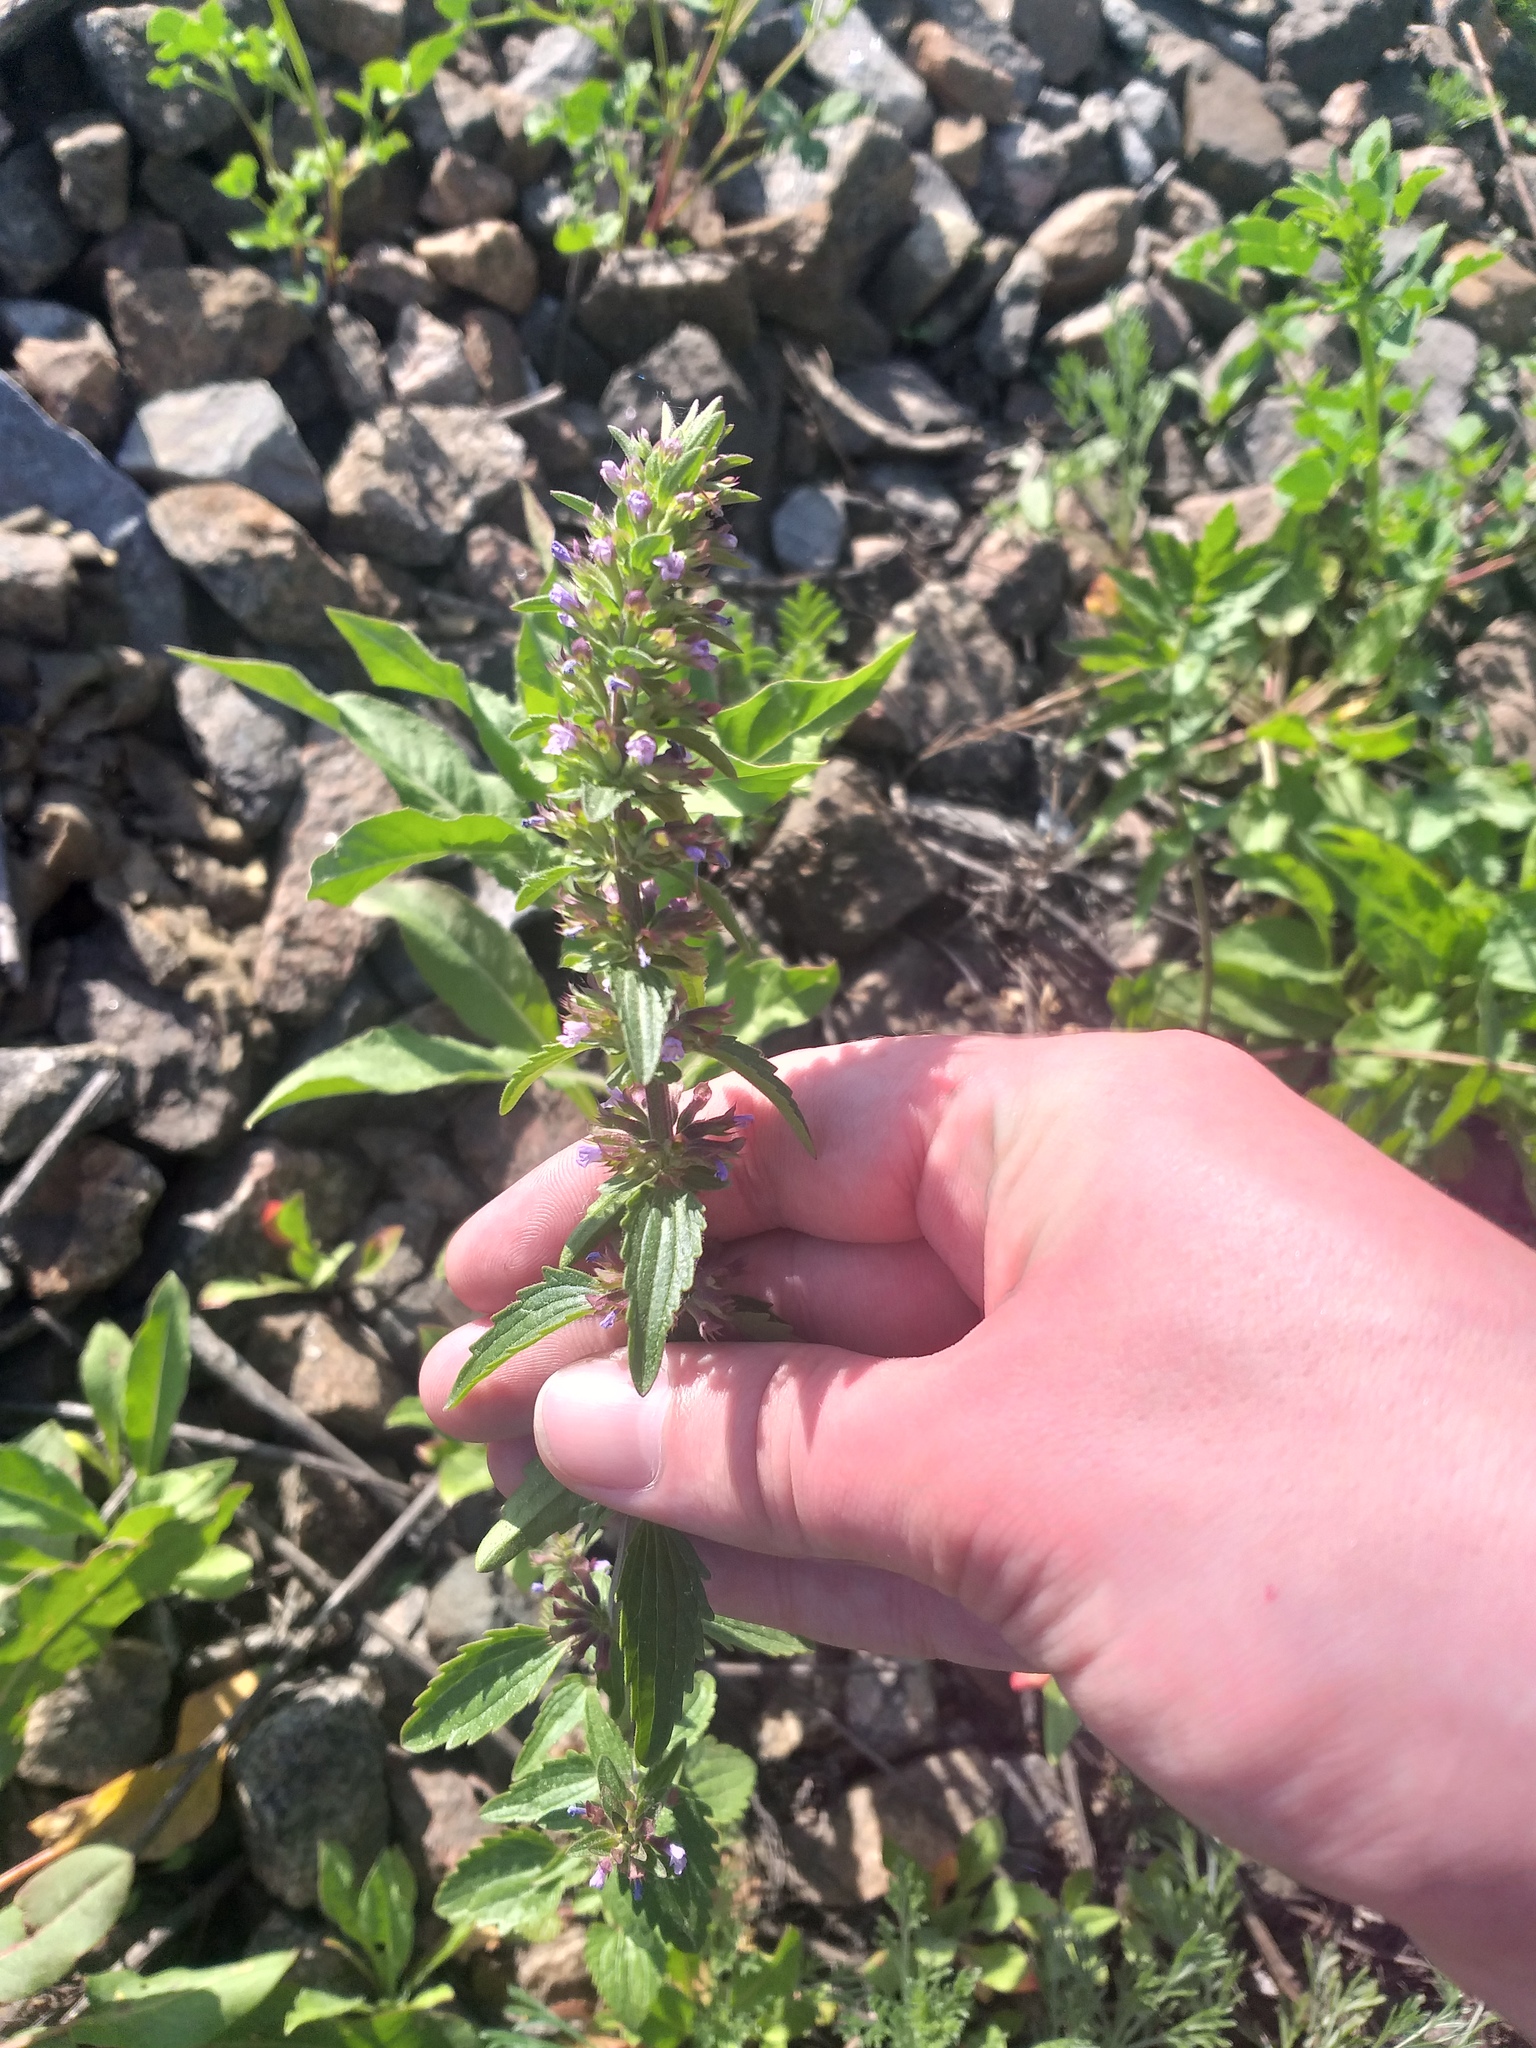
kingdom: Plantae
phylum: Tracheophyta
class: Magnoliopsida
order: Lamiales
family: Lamiaceae
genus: Dracocephalum
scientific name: Dracocephalum thymiflorum
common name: Thymeleaf dragonhead
